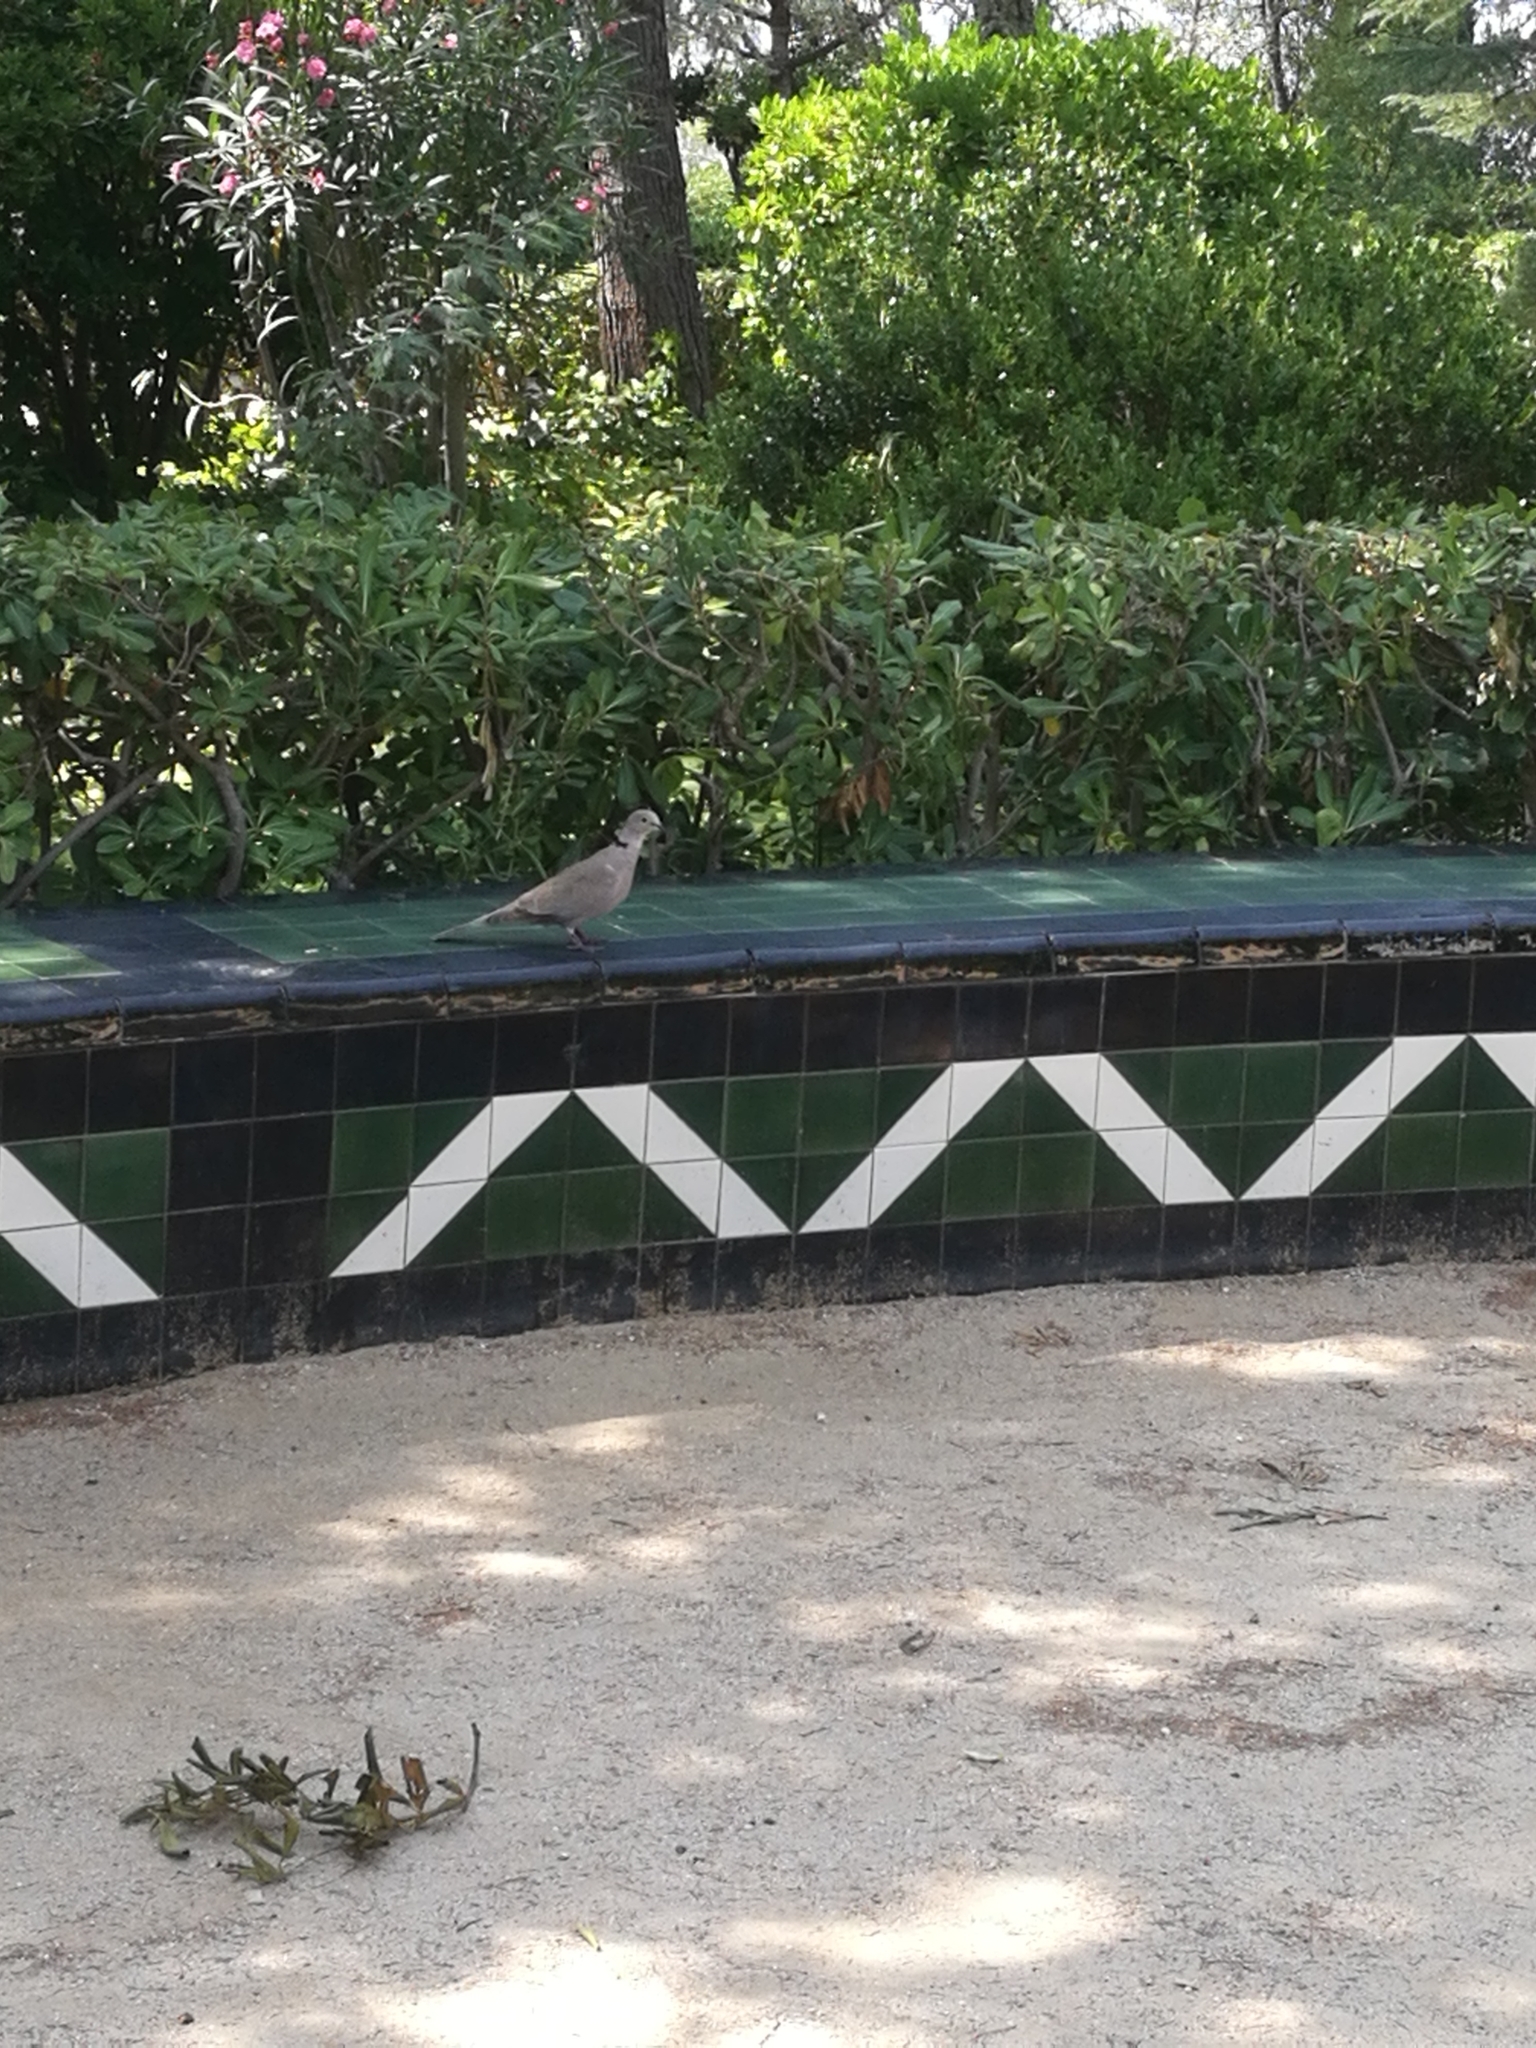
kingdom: Animalia
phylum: Chordata
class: Aves
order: Columbiformes
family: Columbidae
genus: Streptopelia
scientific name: Streptopelia decaocto
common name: Eurasian collared dove
